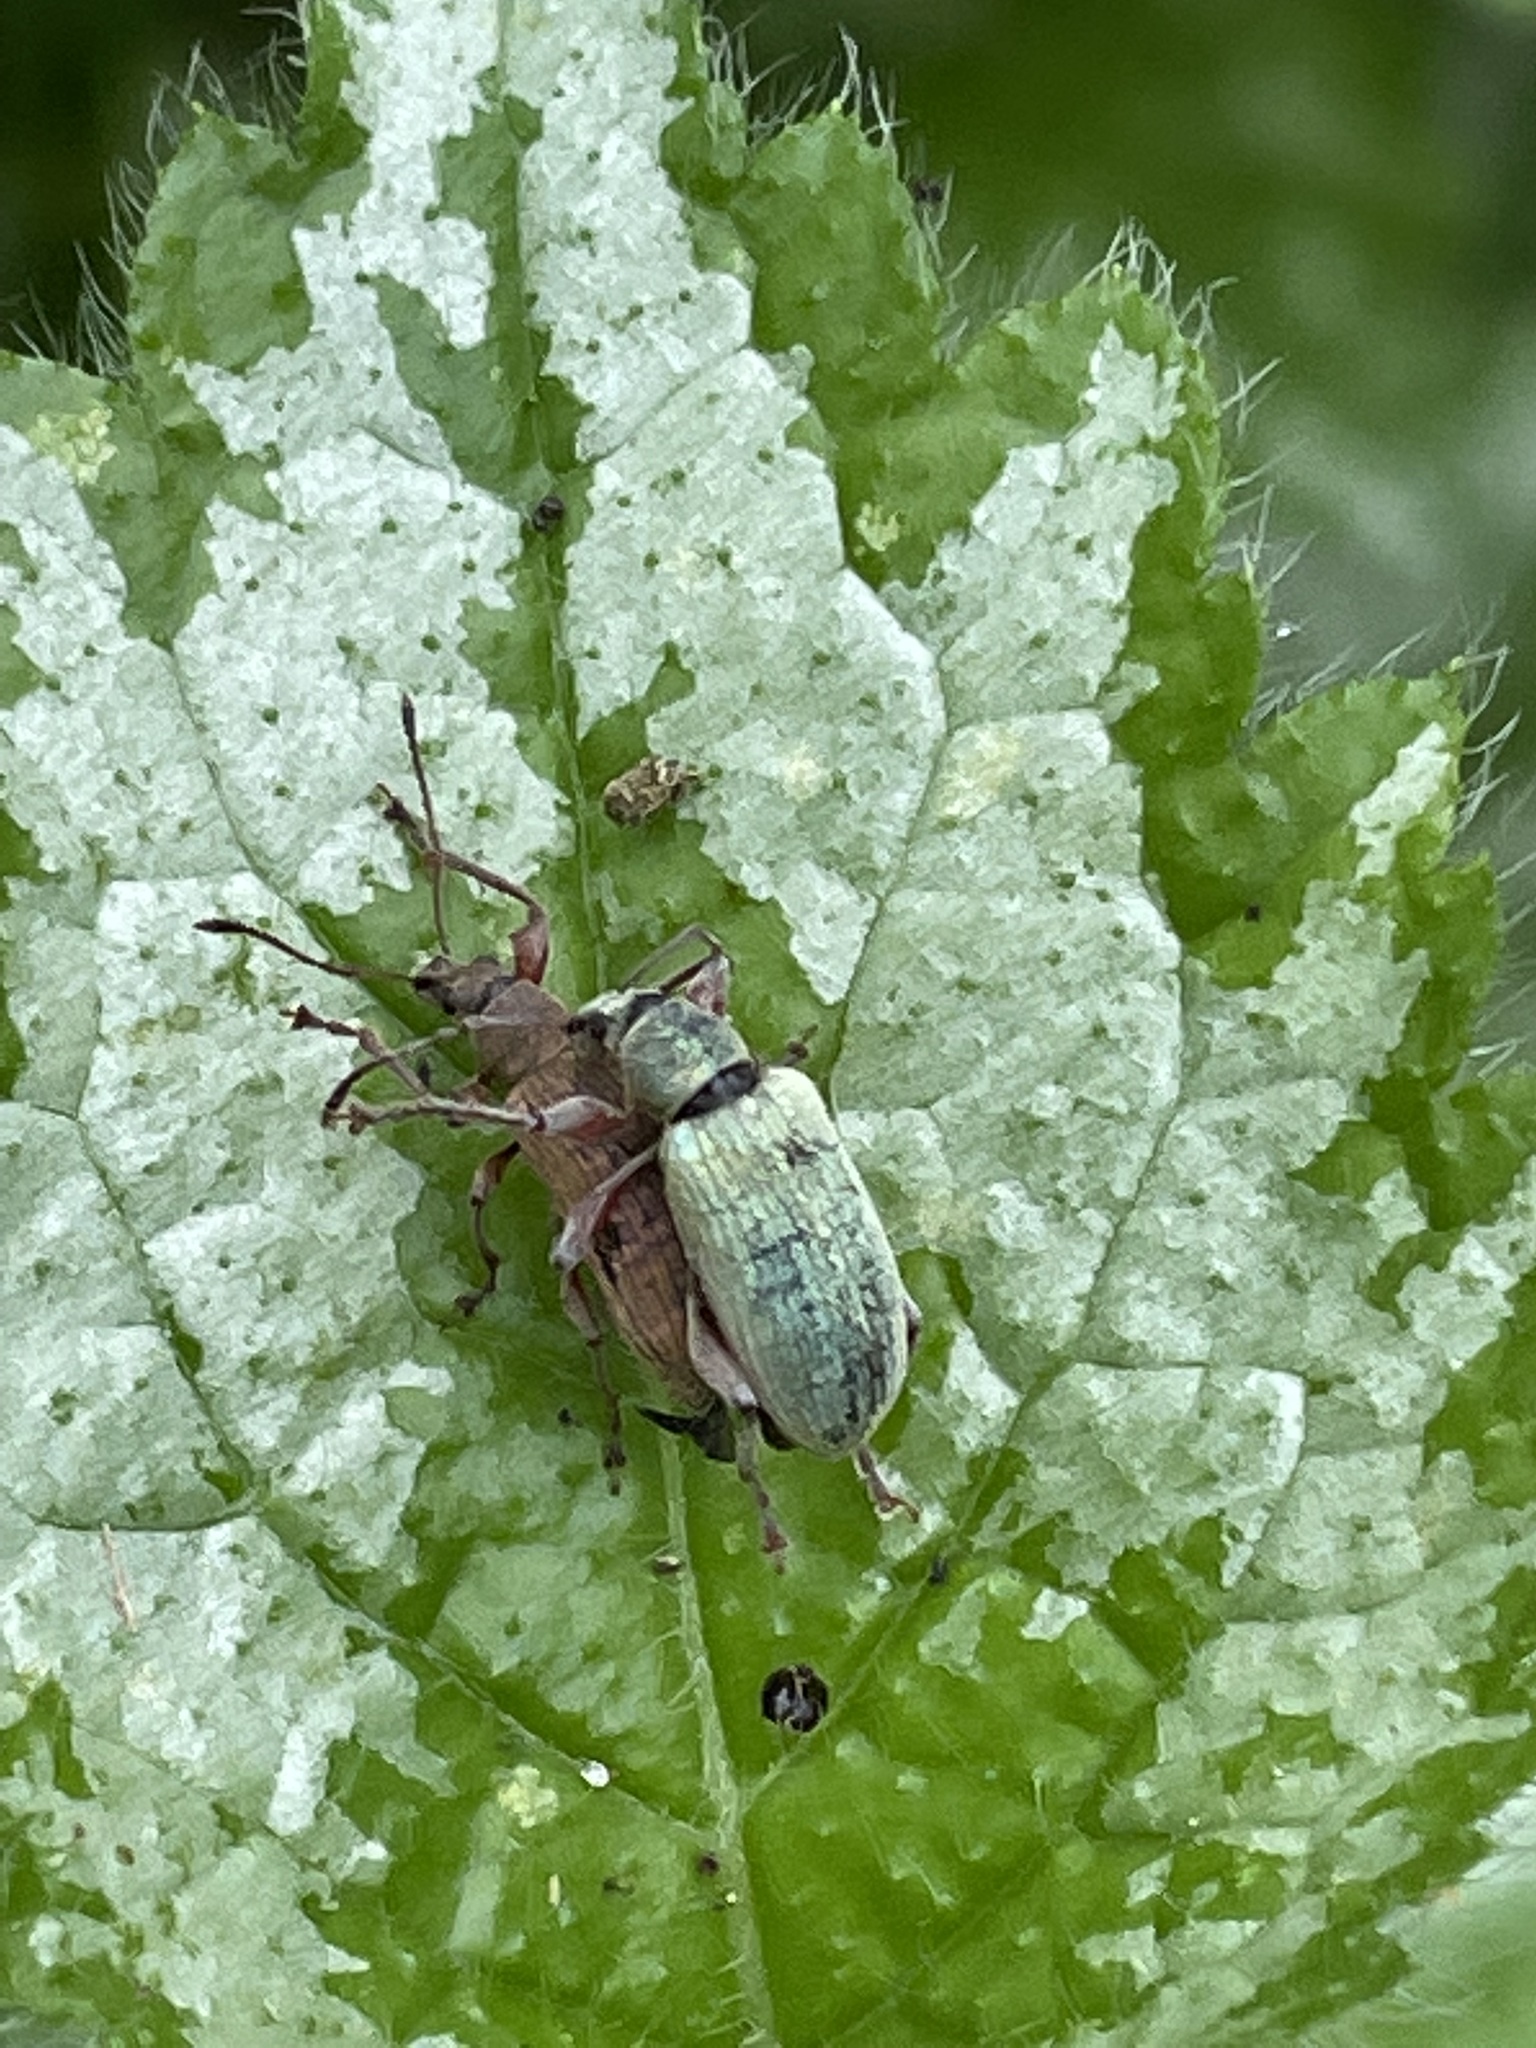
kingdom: Animalia
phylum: Arthropoda
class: Insecta
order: Coleoptera
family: Curculionidae
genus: Phyllobius
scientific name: Phyllobius pomaceus
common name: Green nettle weevil
